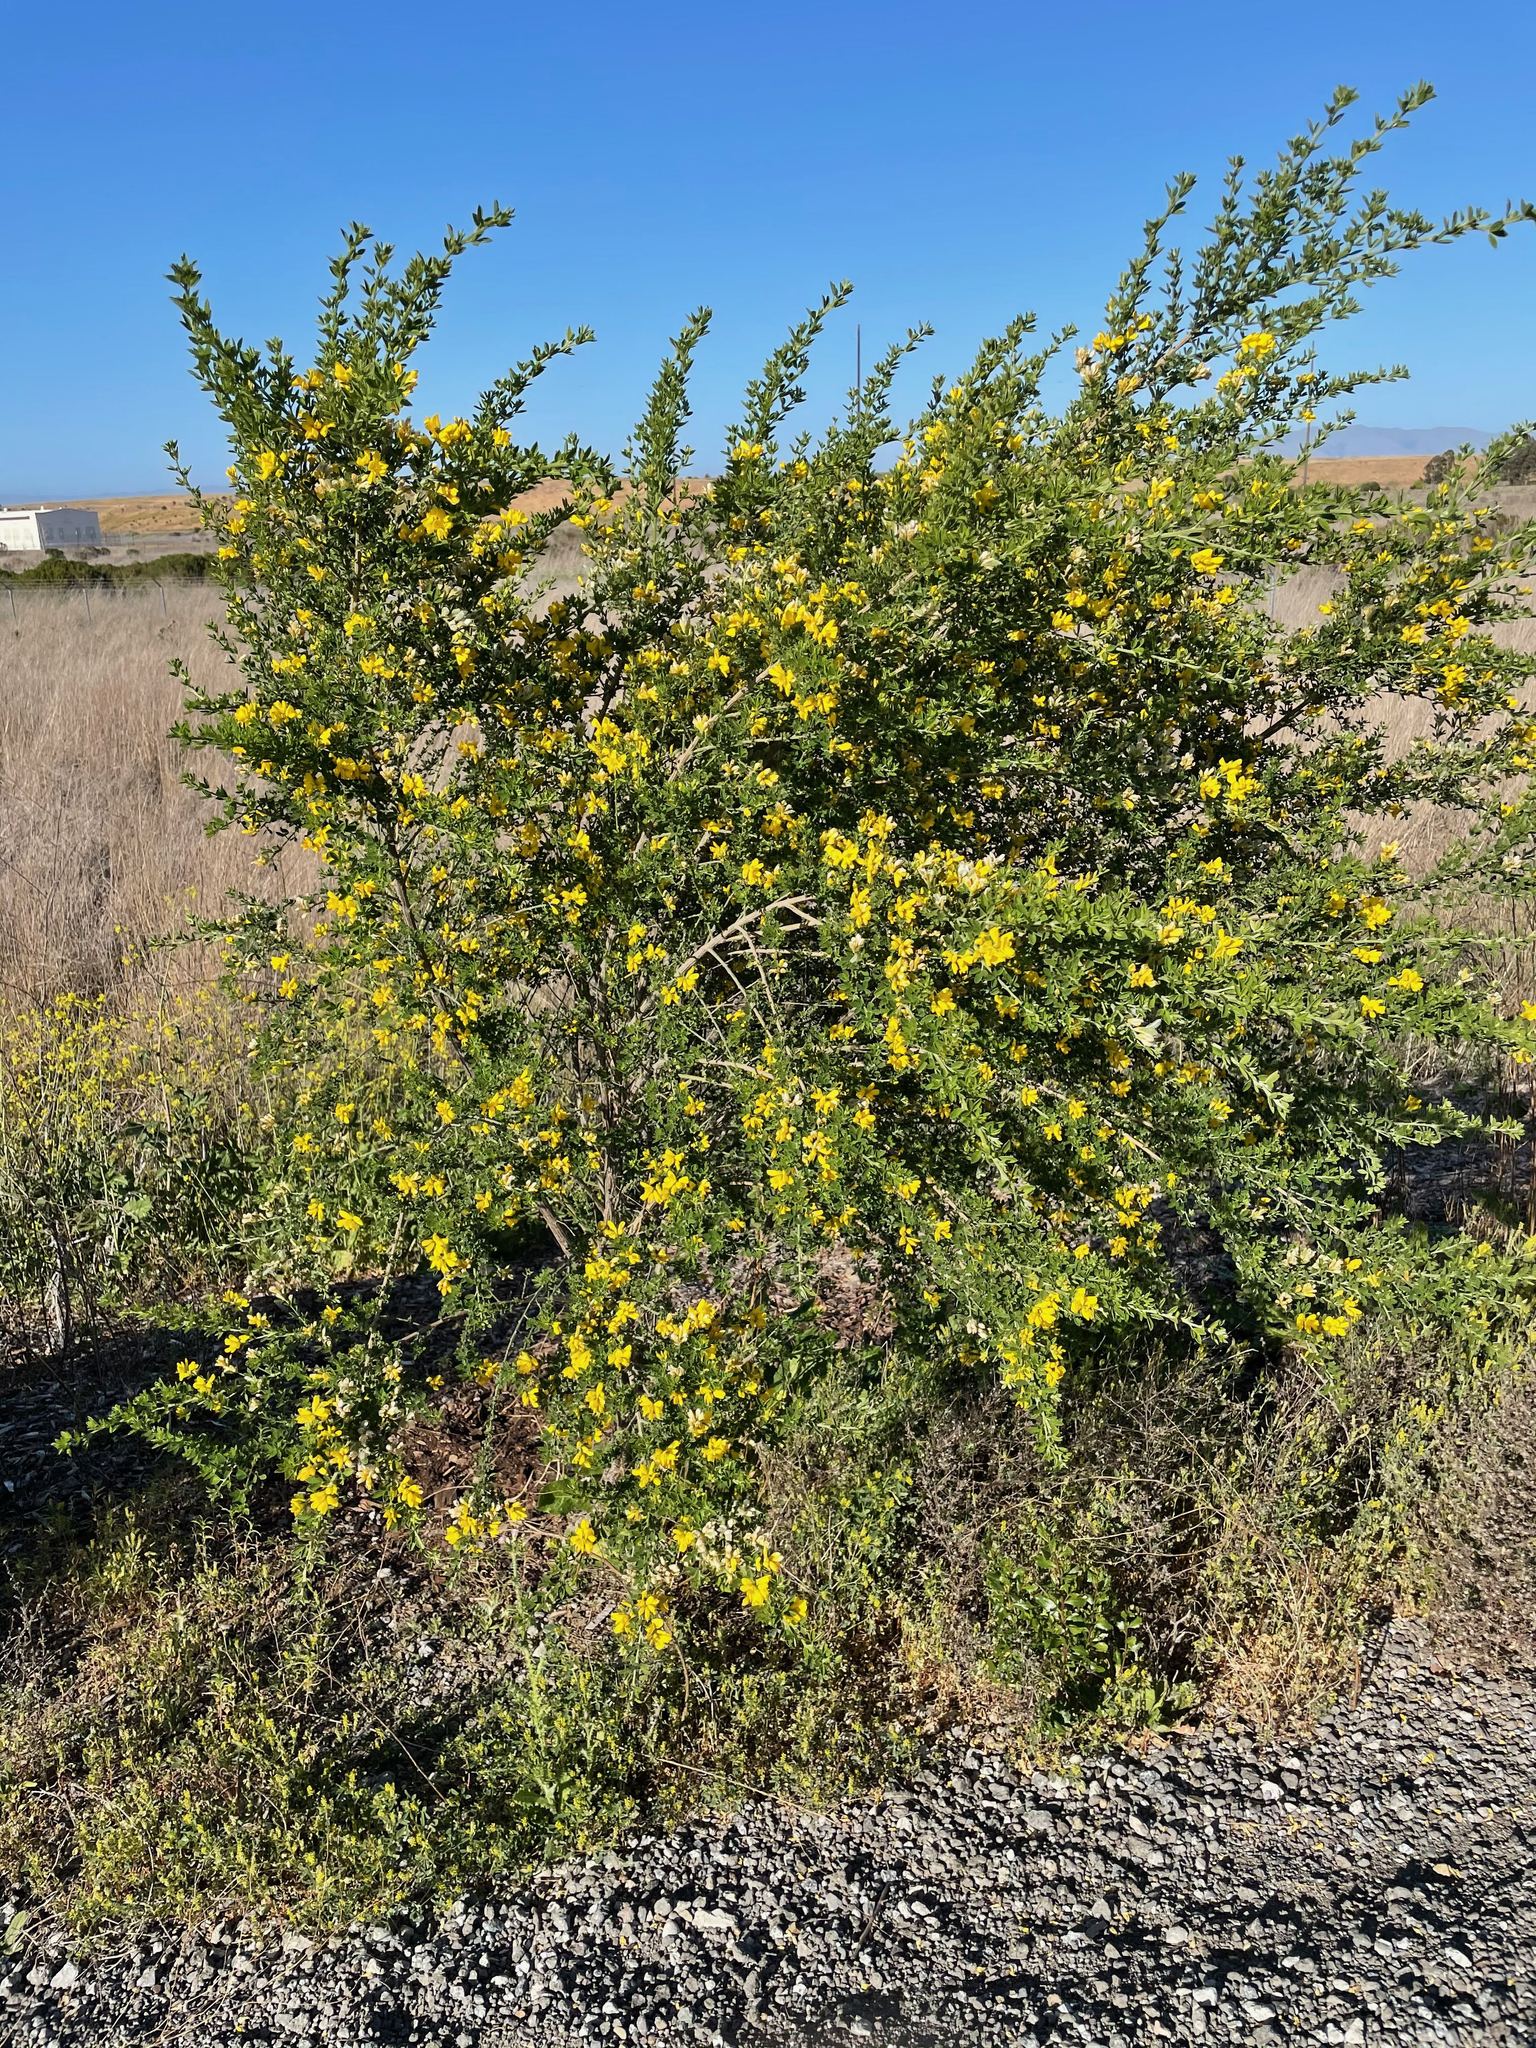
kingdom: Plantae
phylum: Tracheophyta
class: Magnoliopsida
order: Fabales
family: Fabaceae
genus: Genista
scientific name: Genista monspessulana
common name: Montpellier broom
